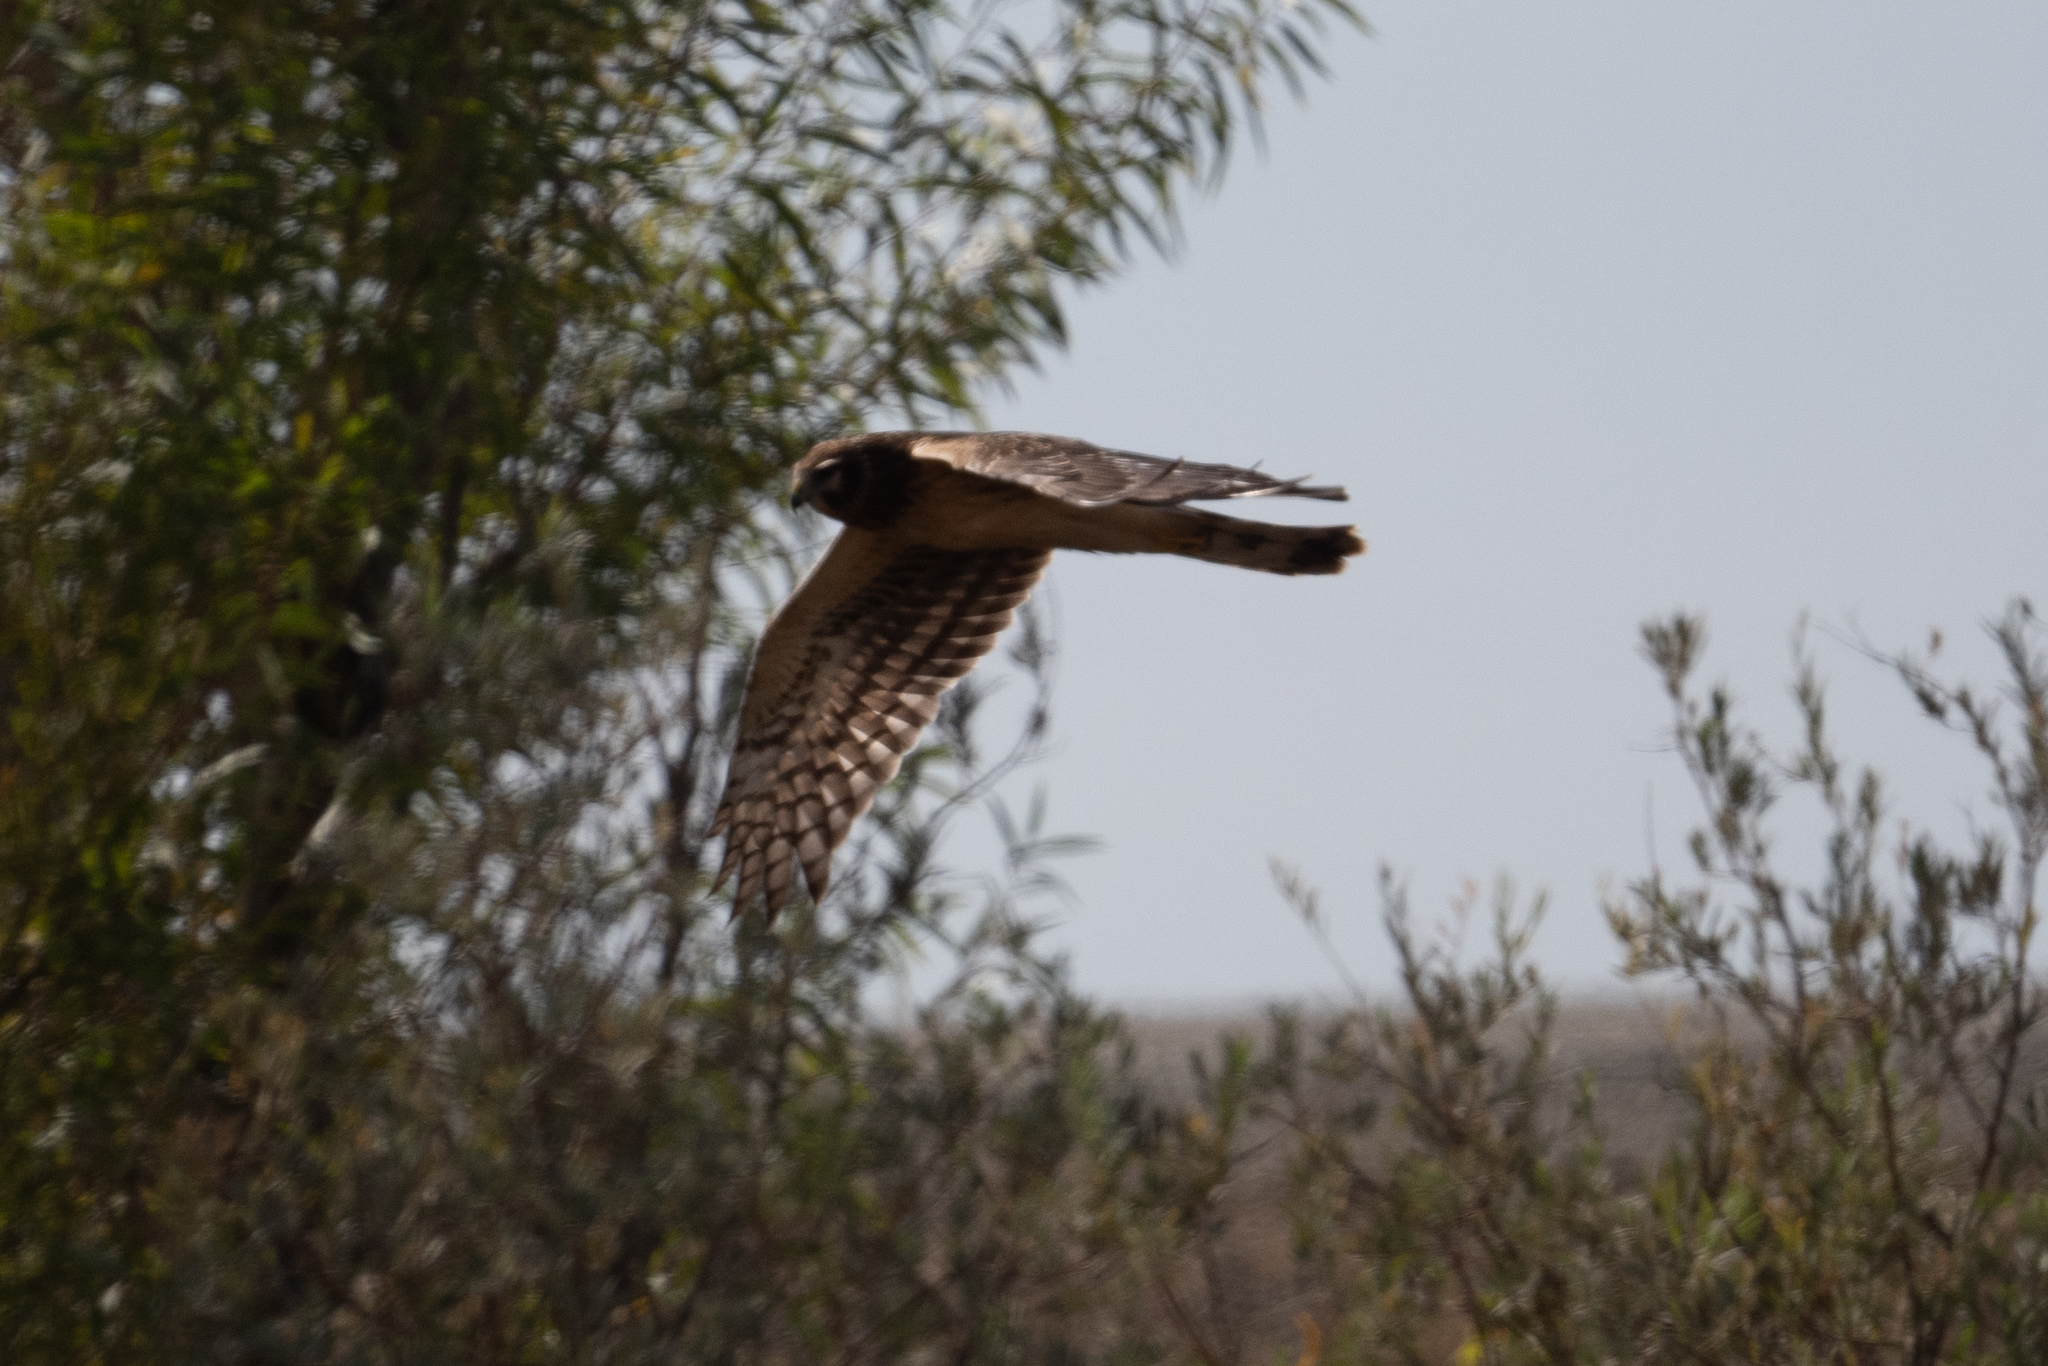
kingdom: Animalia
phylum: Chordata
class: Aves
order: Accipitriformes
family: Accipitridae
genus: Circus
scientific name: Circus cyaneus
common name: Hen harrier
